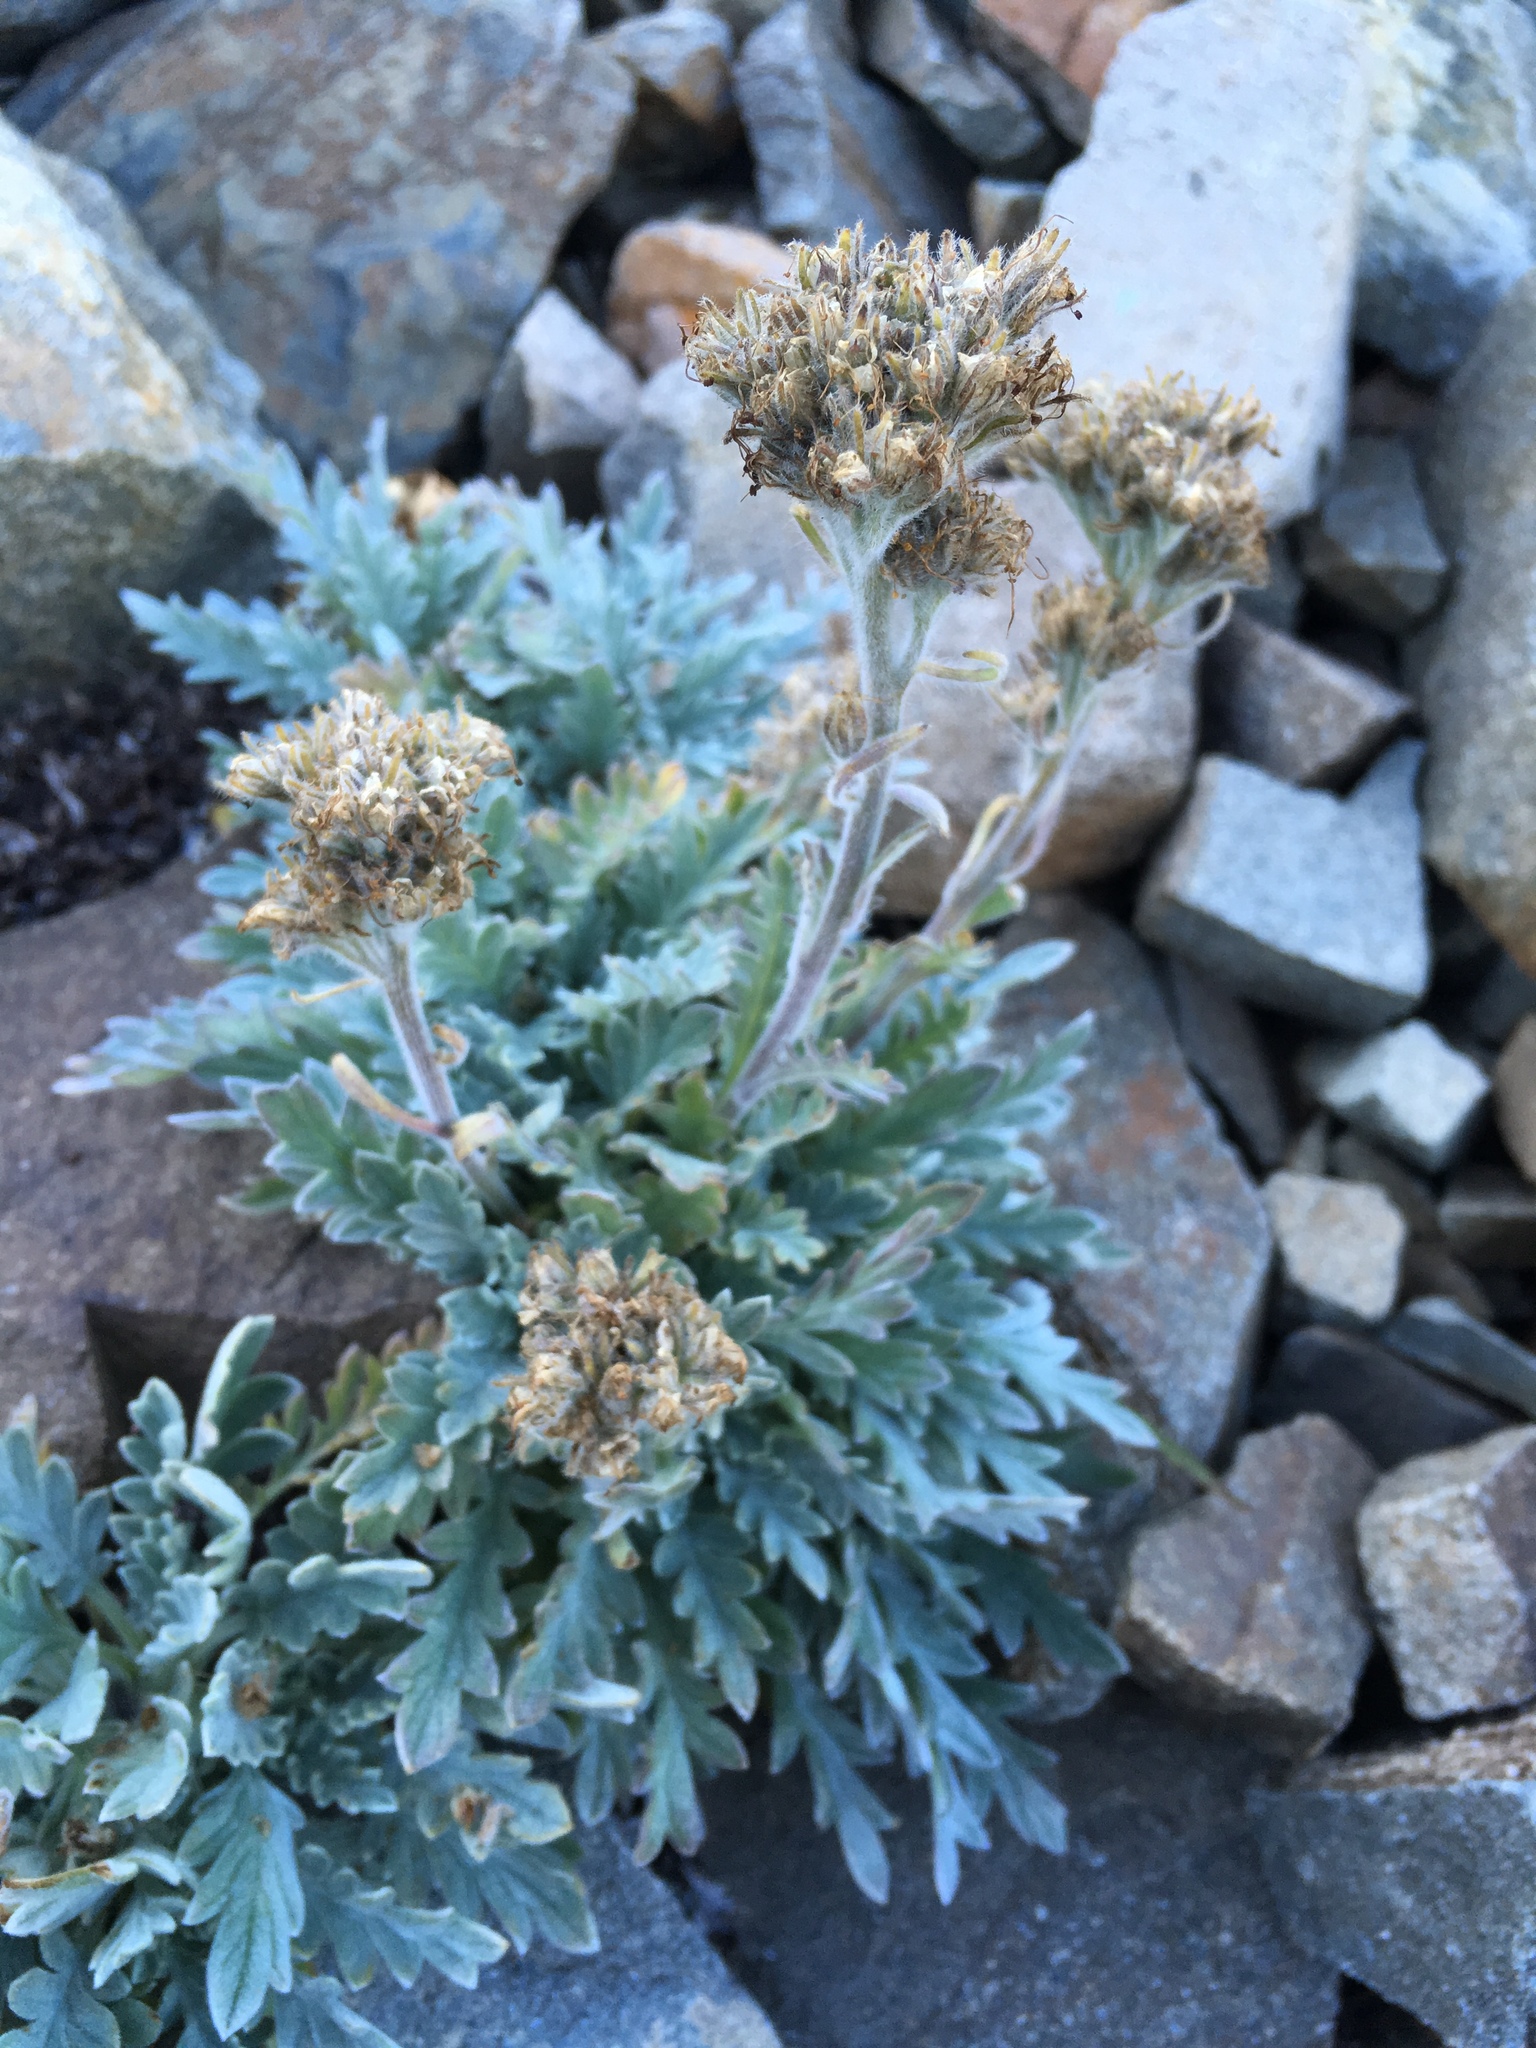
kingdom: Plantae
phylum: Tracheophyta
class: Magnoliopsida
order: Boraginales
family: Hydrophyllaceae
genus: Phacelia
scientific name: Phacelia sericea
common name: Silky phacelia
